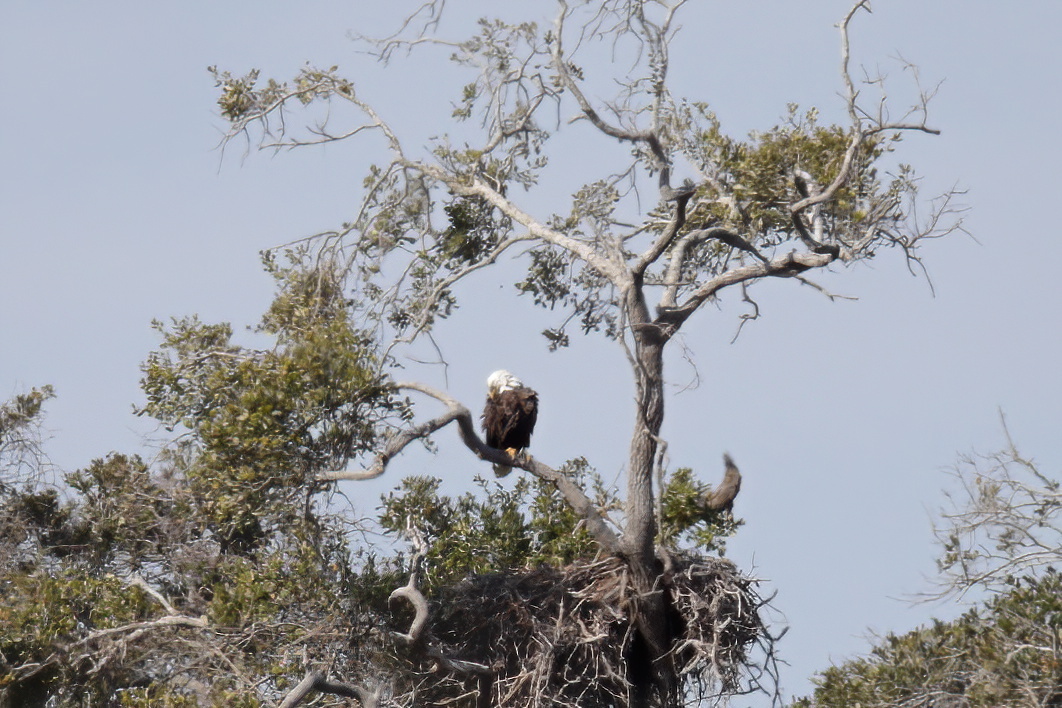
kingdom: Animalia
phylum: Chordata
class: Aves
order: Accipitriformes
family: Accipitridae
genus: Haliaeetus
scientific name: Haliaeetus leucocephalus
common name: Bald eagle
